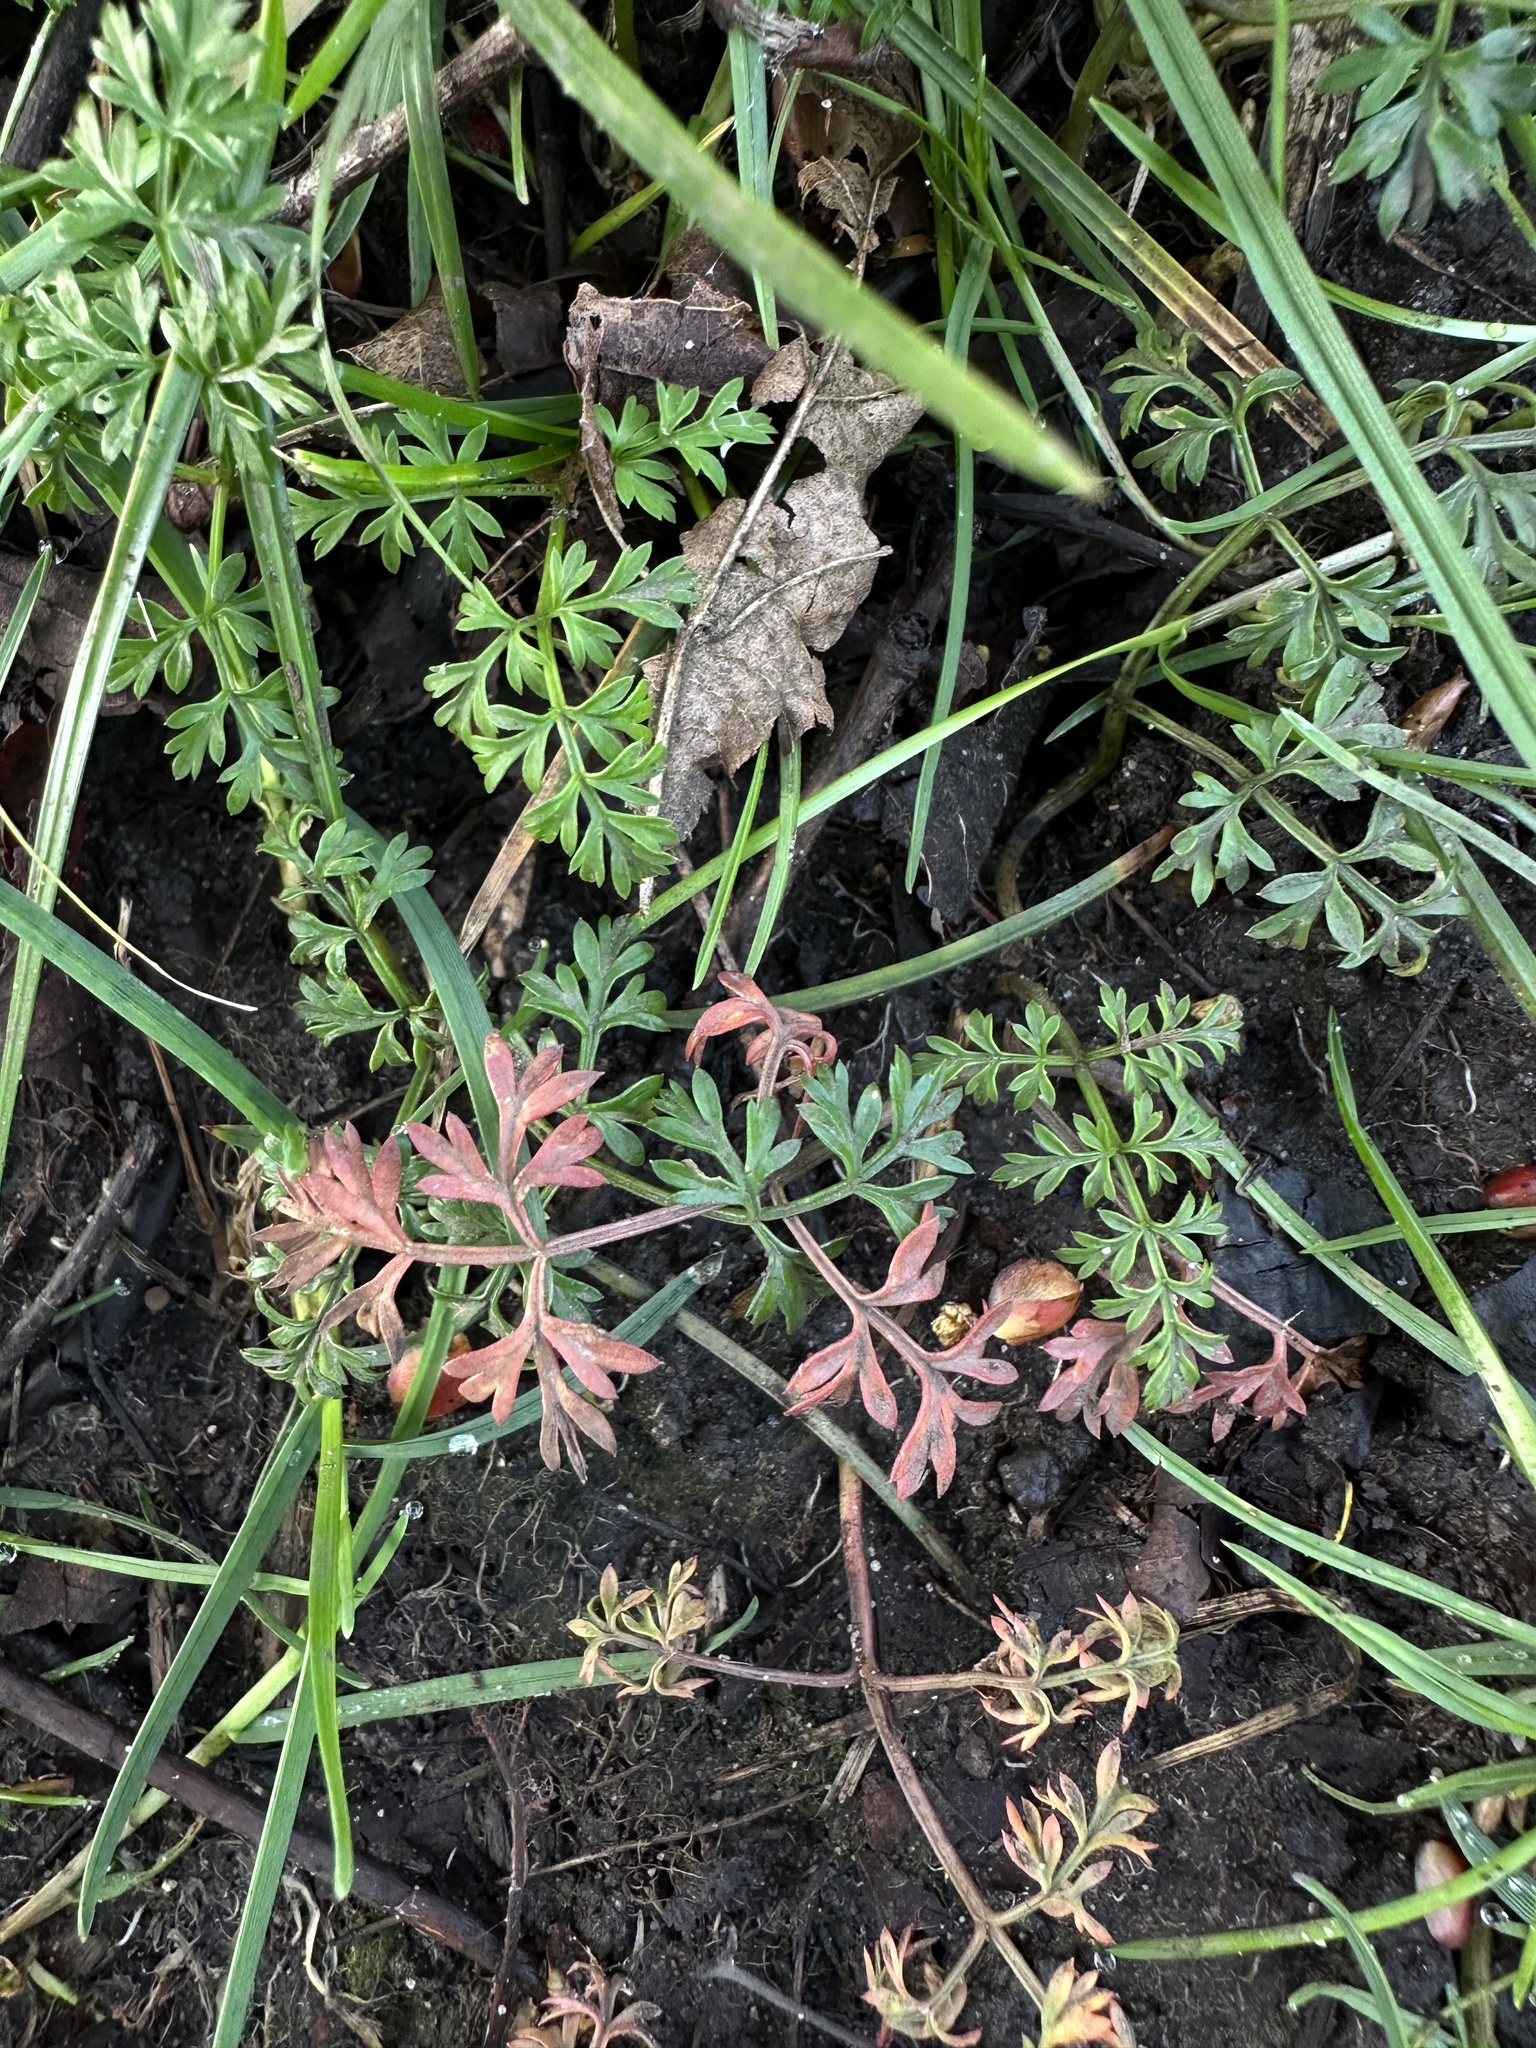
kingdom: Plantae
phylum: Tracheophyta
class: Magnoliopsida
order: Apiales
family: Apiaceae
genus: Conopodium
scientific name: Conopodium majus
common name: Pignut
